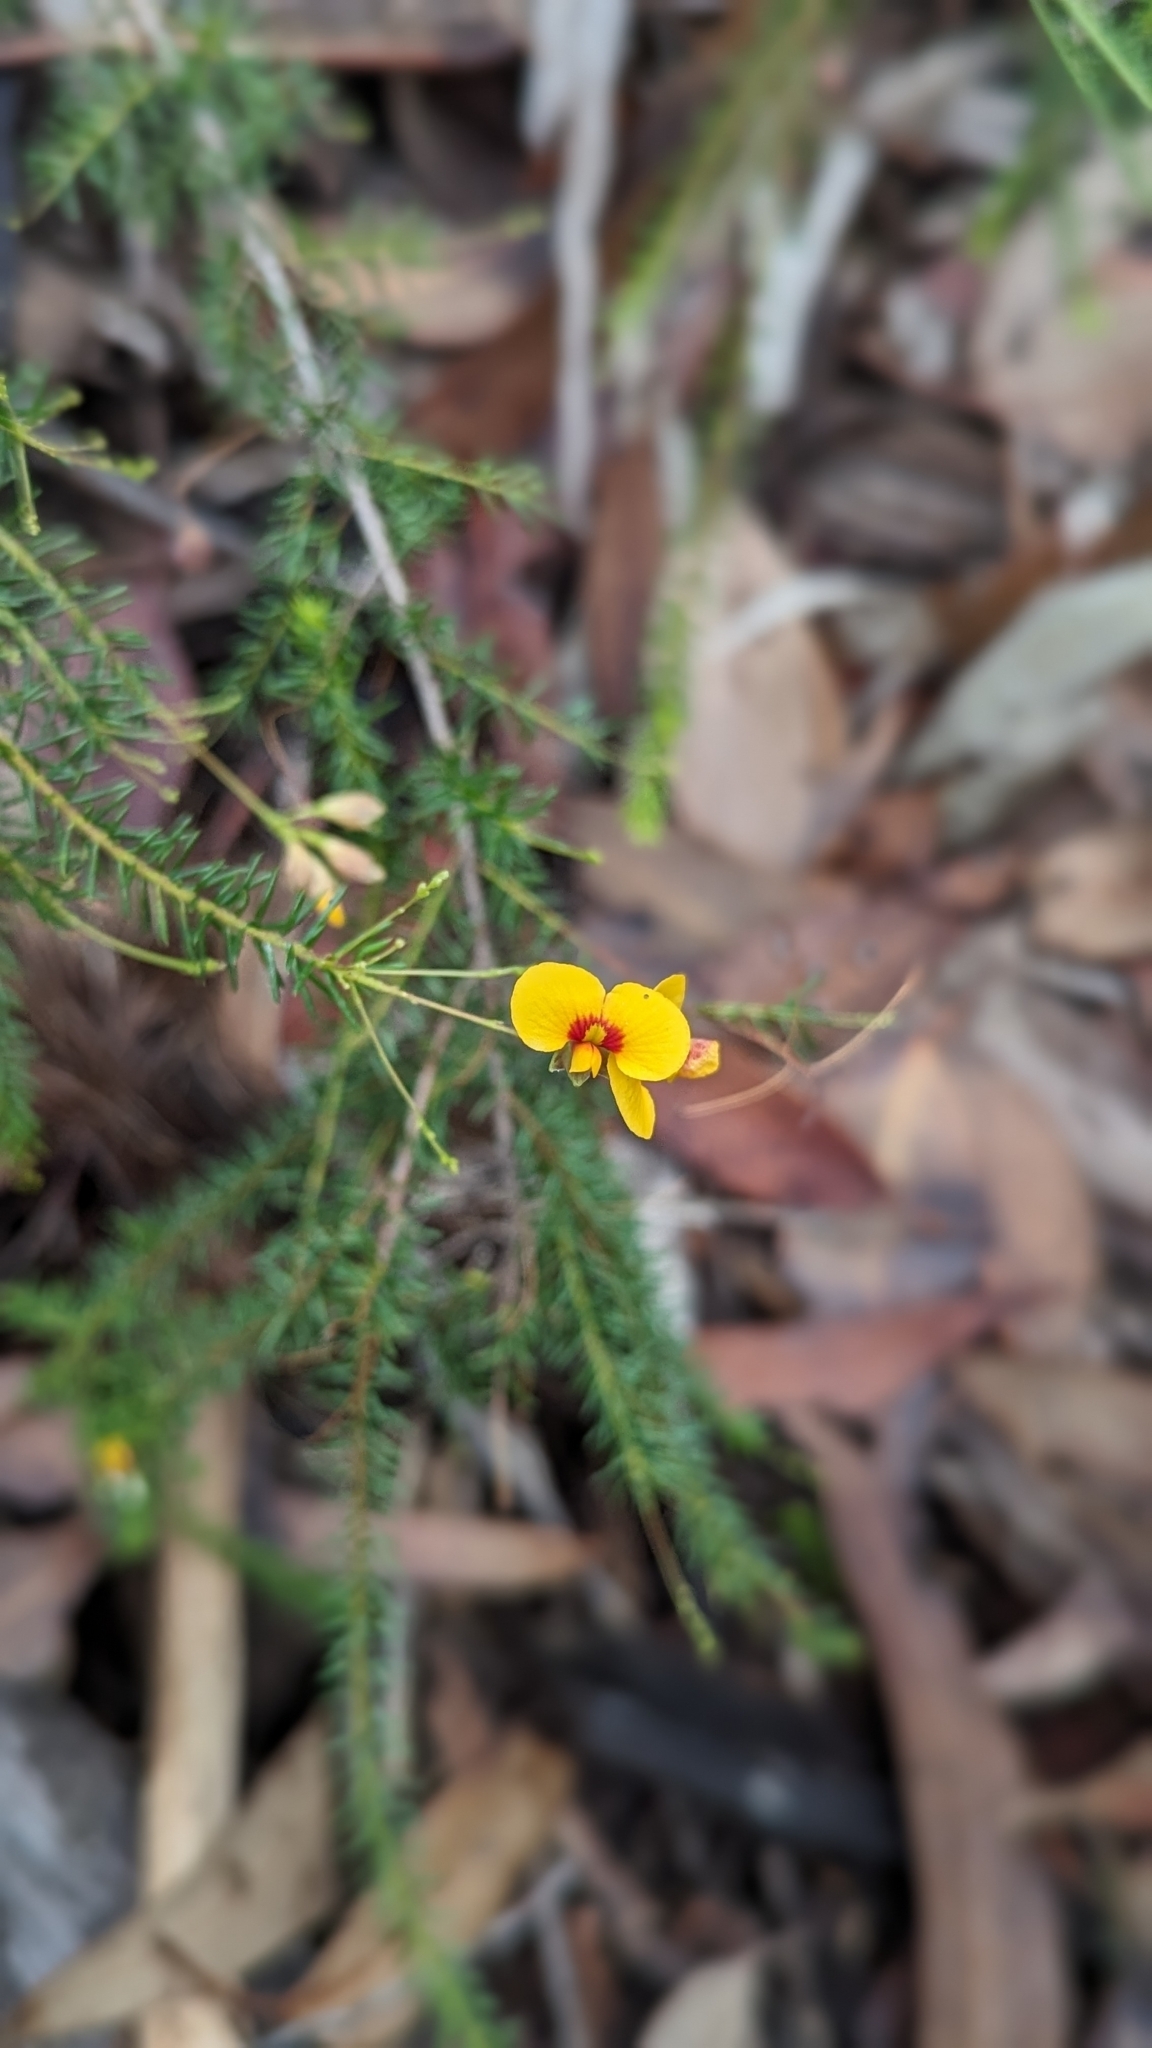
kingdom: Plantae
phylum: Tracheophyta
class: Magnoliopsida
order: Fabales
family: Fabaceae
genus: Dillwynia
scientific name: Dillwynia retorta
